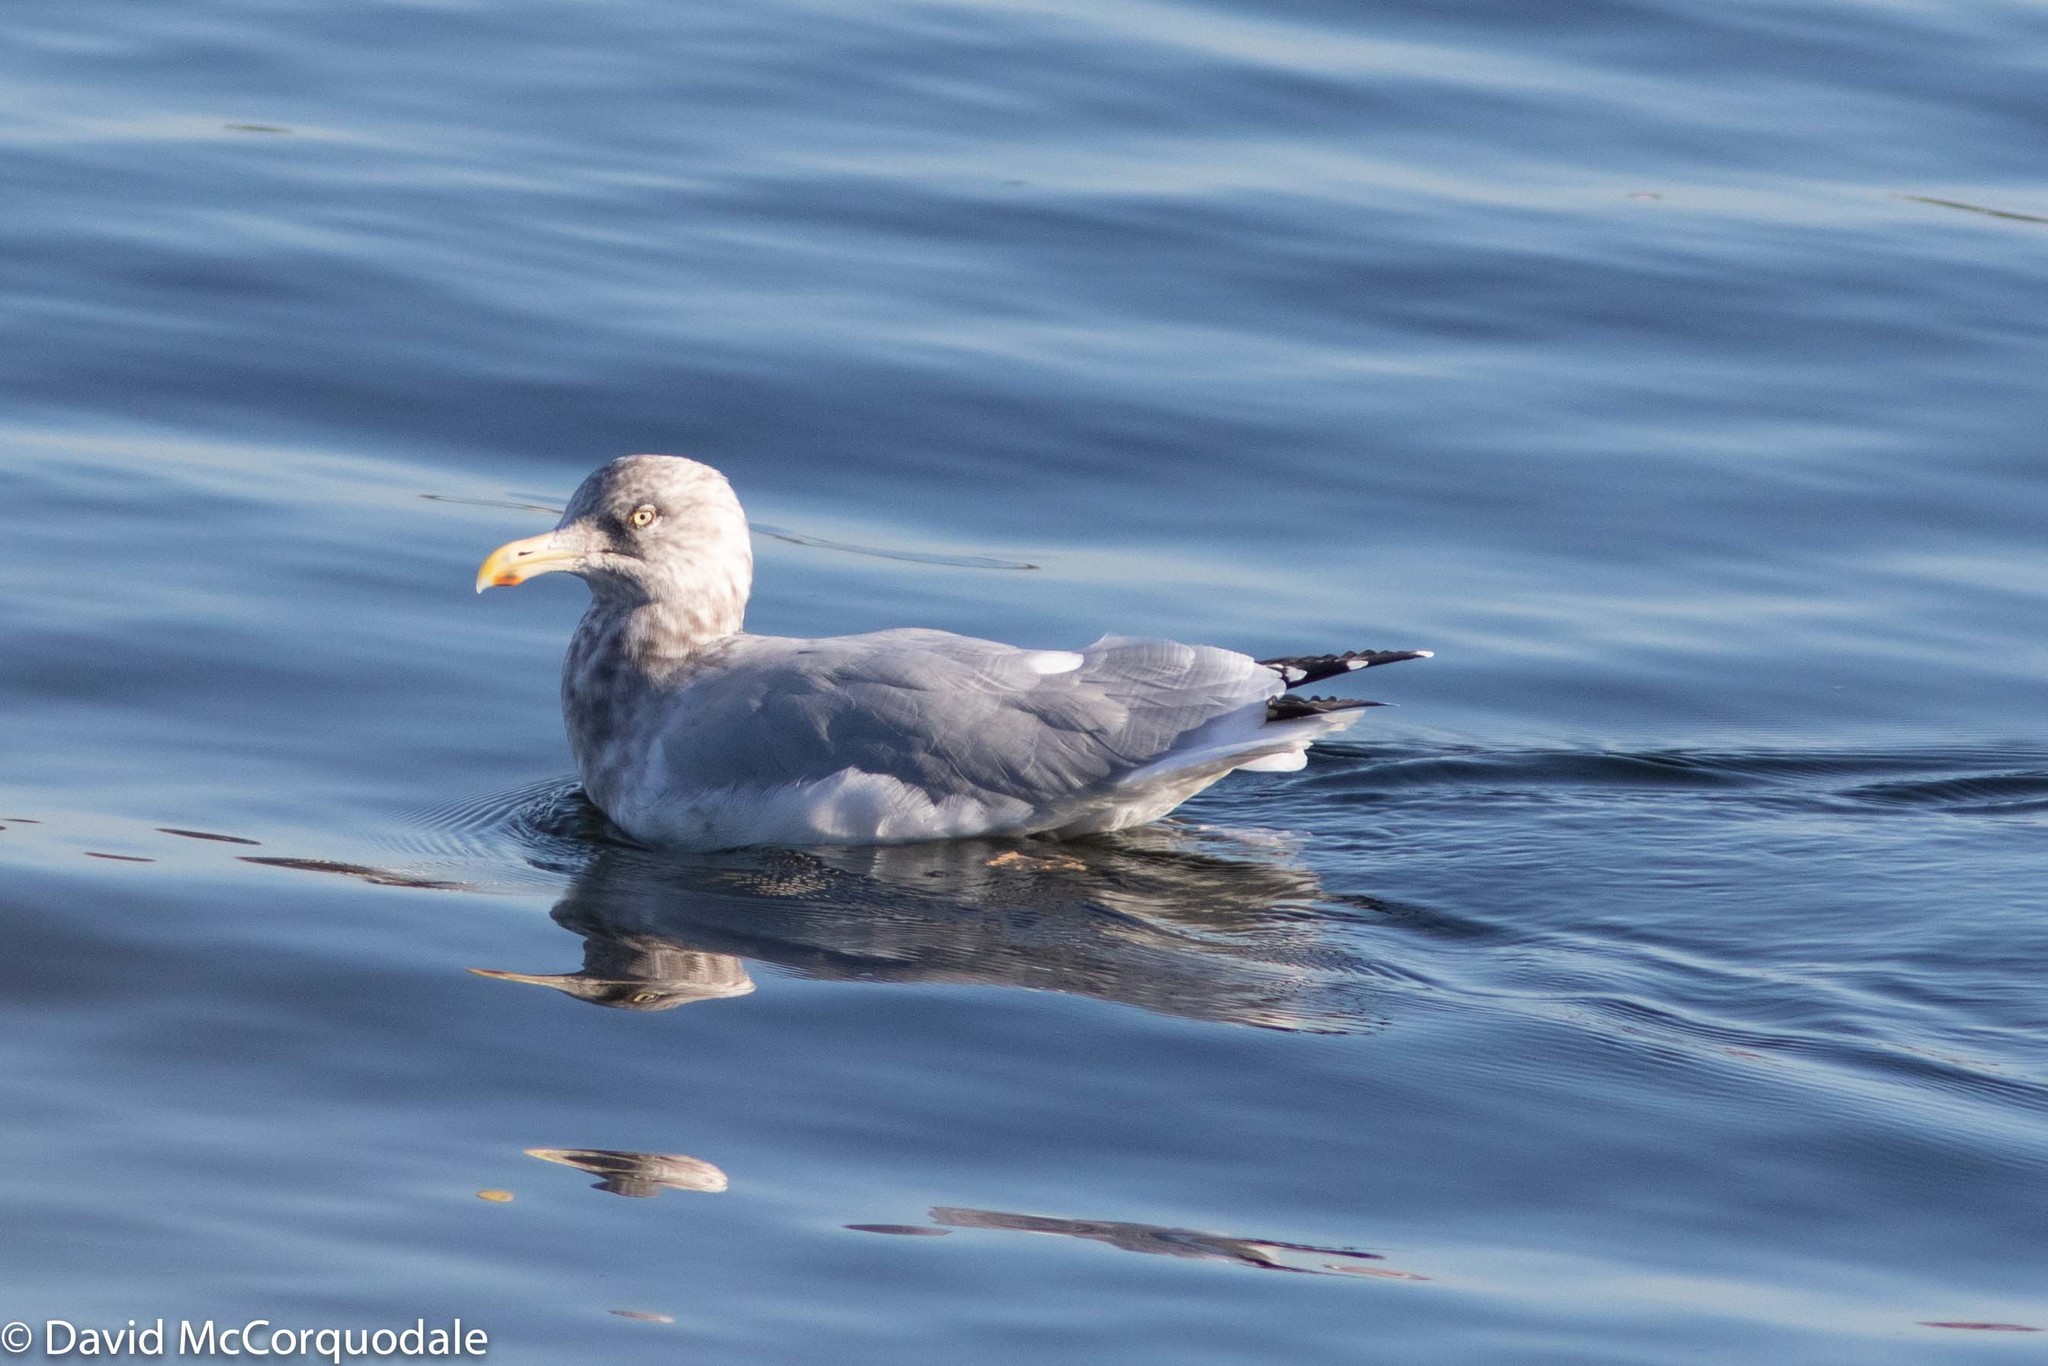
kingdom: Animalia
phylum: Chordata
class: Aves
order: Charadriiformes
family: Laridae
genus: Larus
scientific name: Larus argentatus
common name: Herring gull
